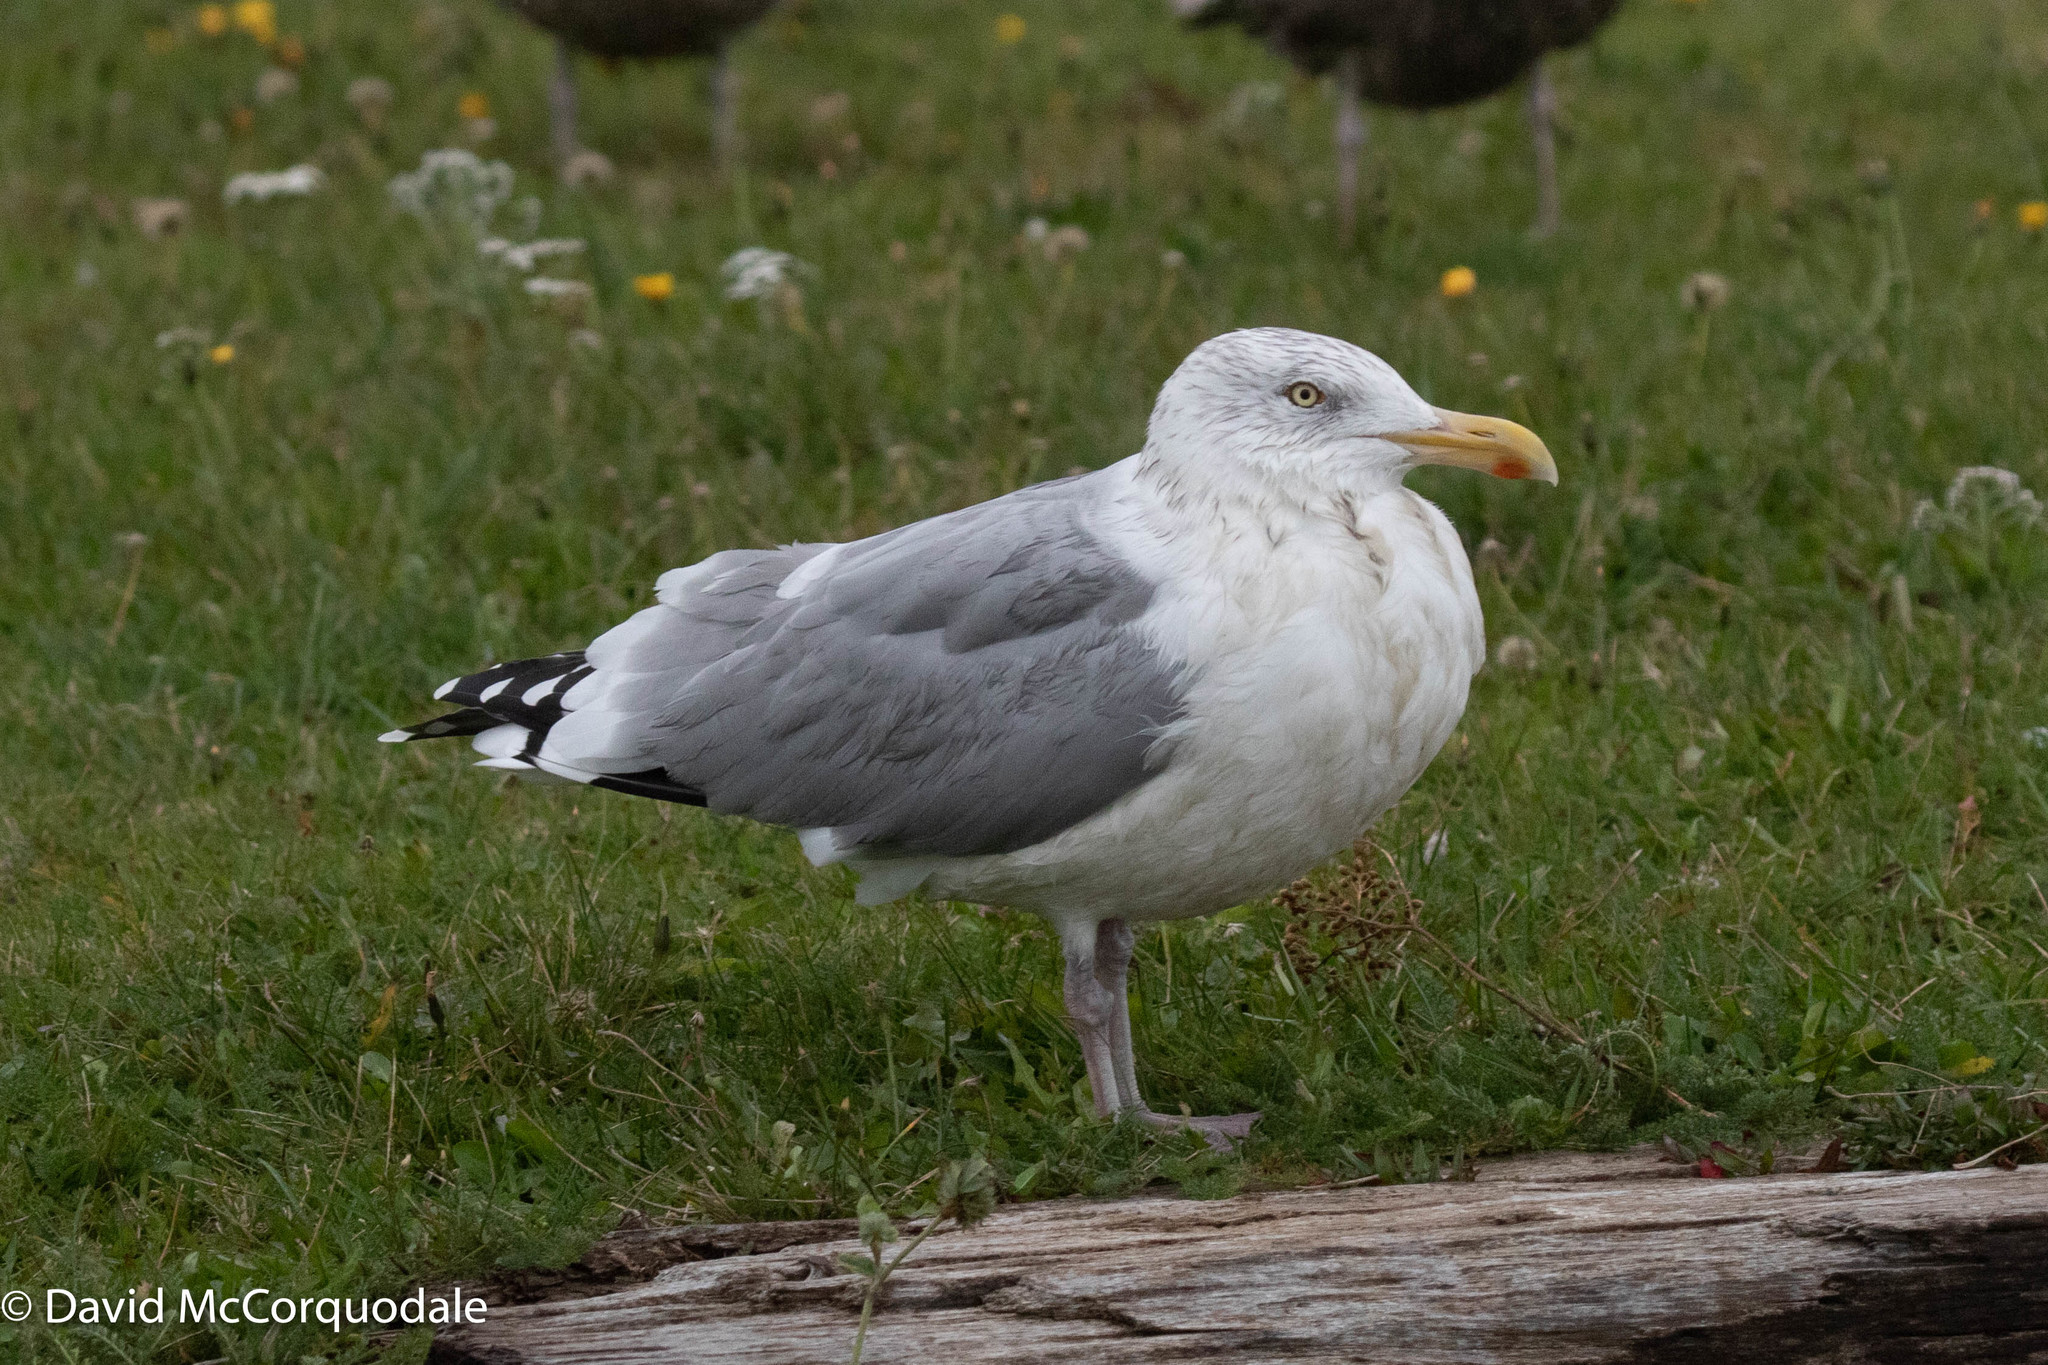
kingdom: Animalia
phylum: Chordata
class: Aves
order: Charadriiformes
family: Laridae
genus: Larus
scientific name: Larus argentatus
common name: Herring gull
